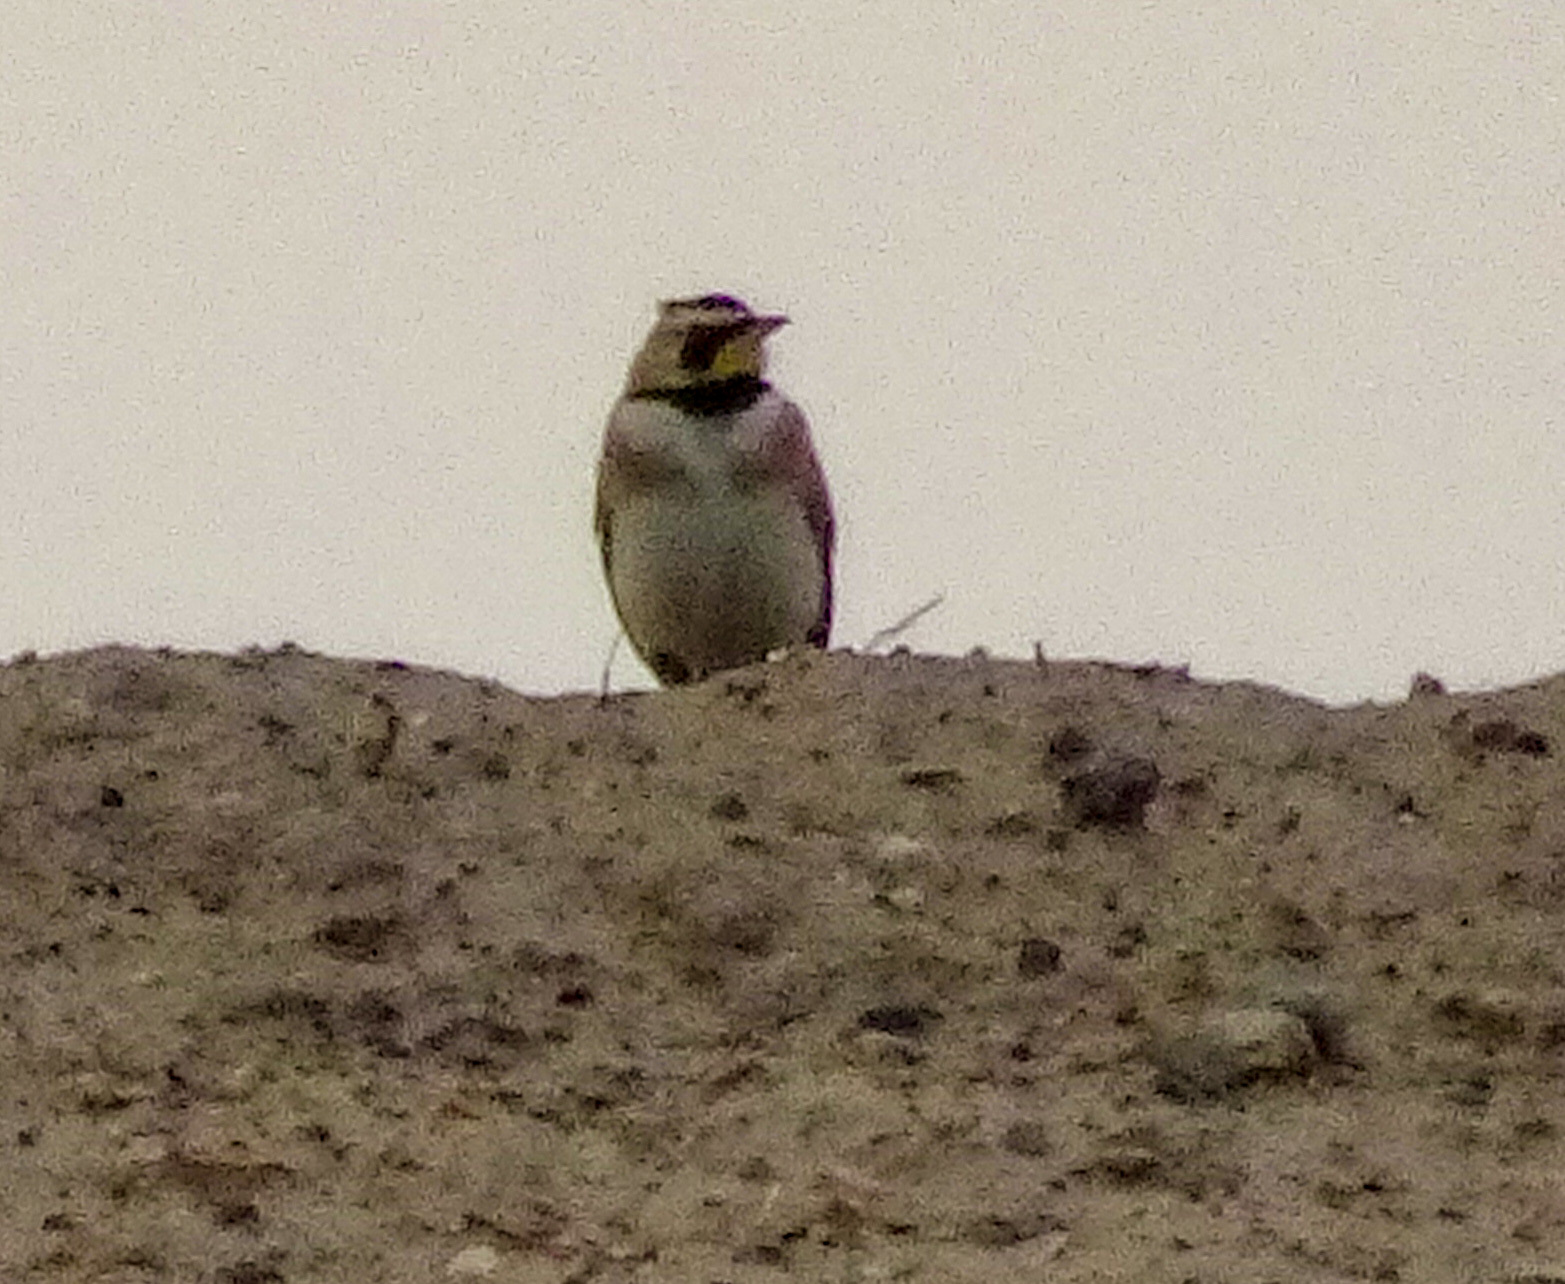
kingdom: Animalia
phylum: Chordata
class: Aves
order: Passeriformes
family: Alaudidae
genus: Eremophila
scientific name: Eremophila alpestris
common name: Horned lark
